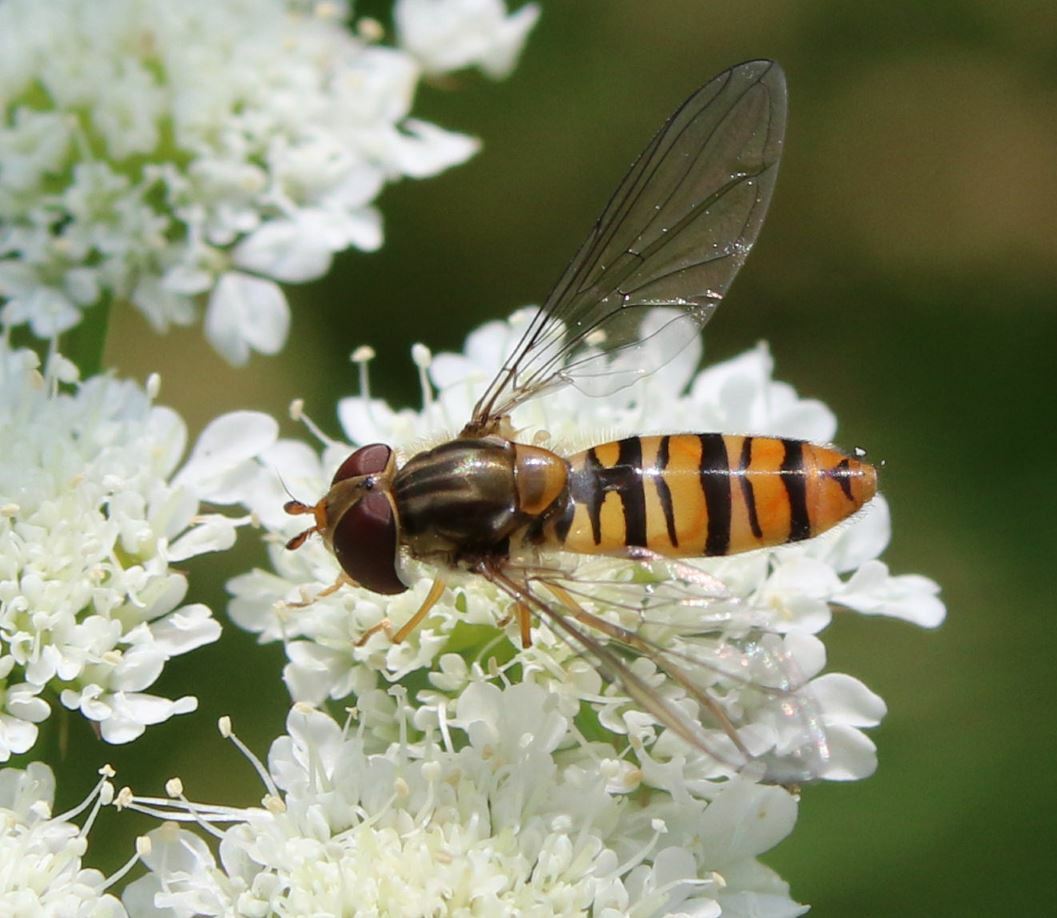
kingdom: Animalia
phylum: Arthropoda
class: Insecta
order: Diptera
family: Syrphidae
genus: Episyrphus
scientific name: Episyrphus balteatus
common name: Marmalade hoverfly
